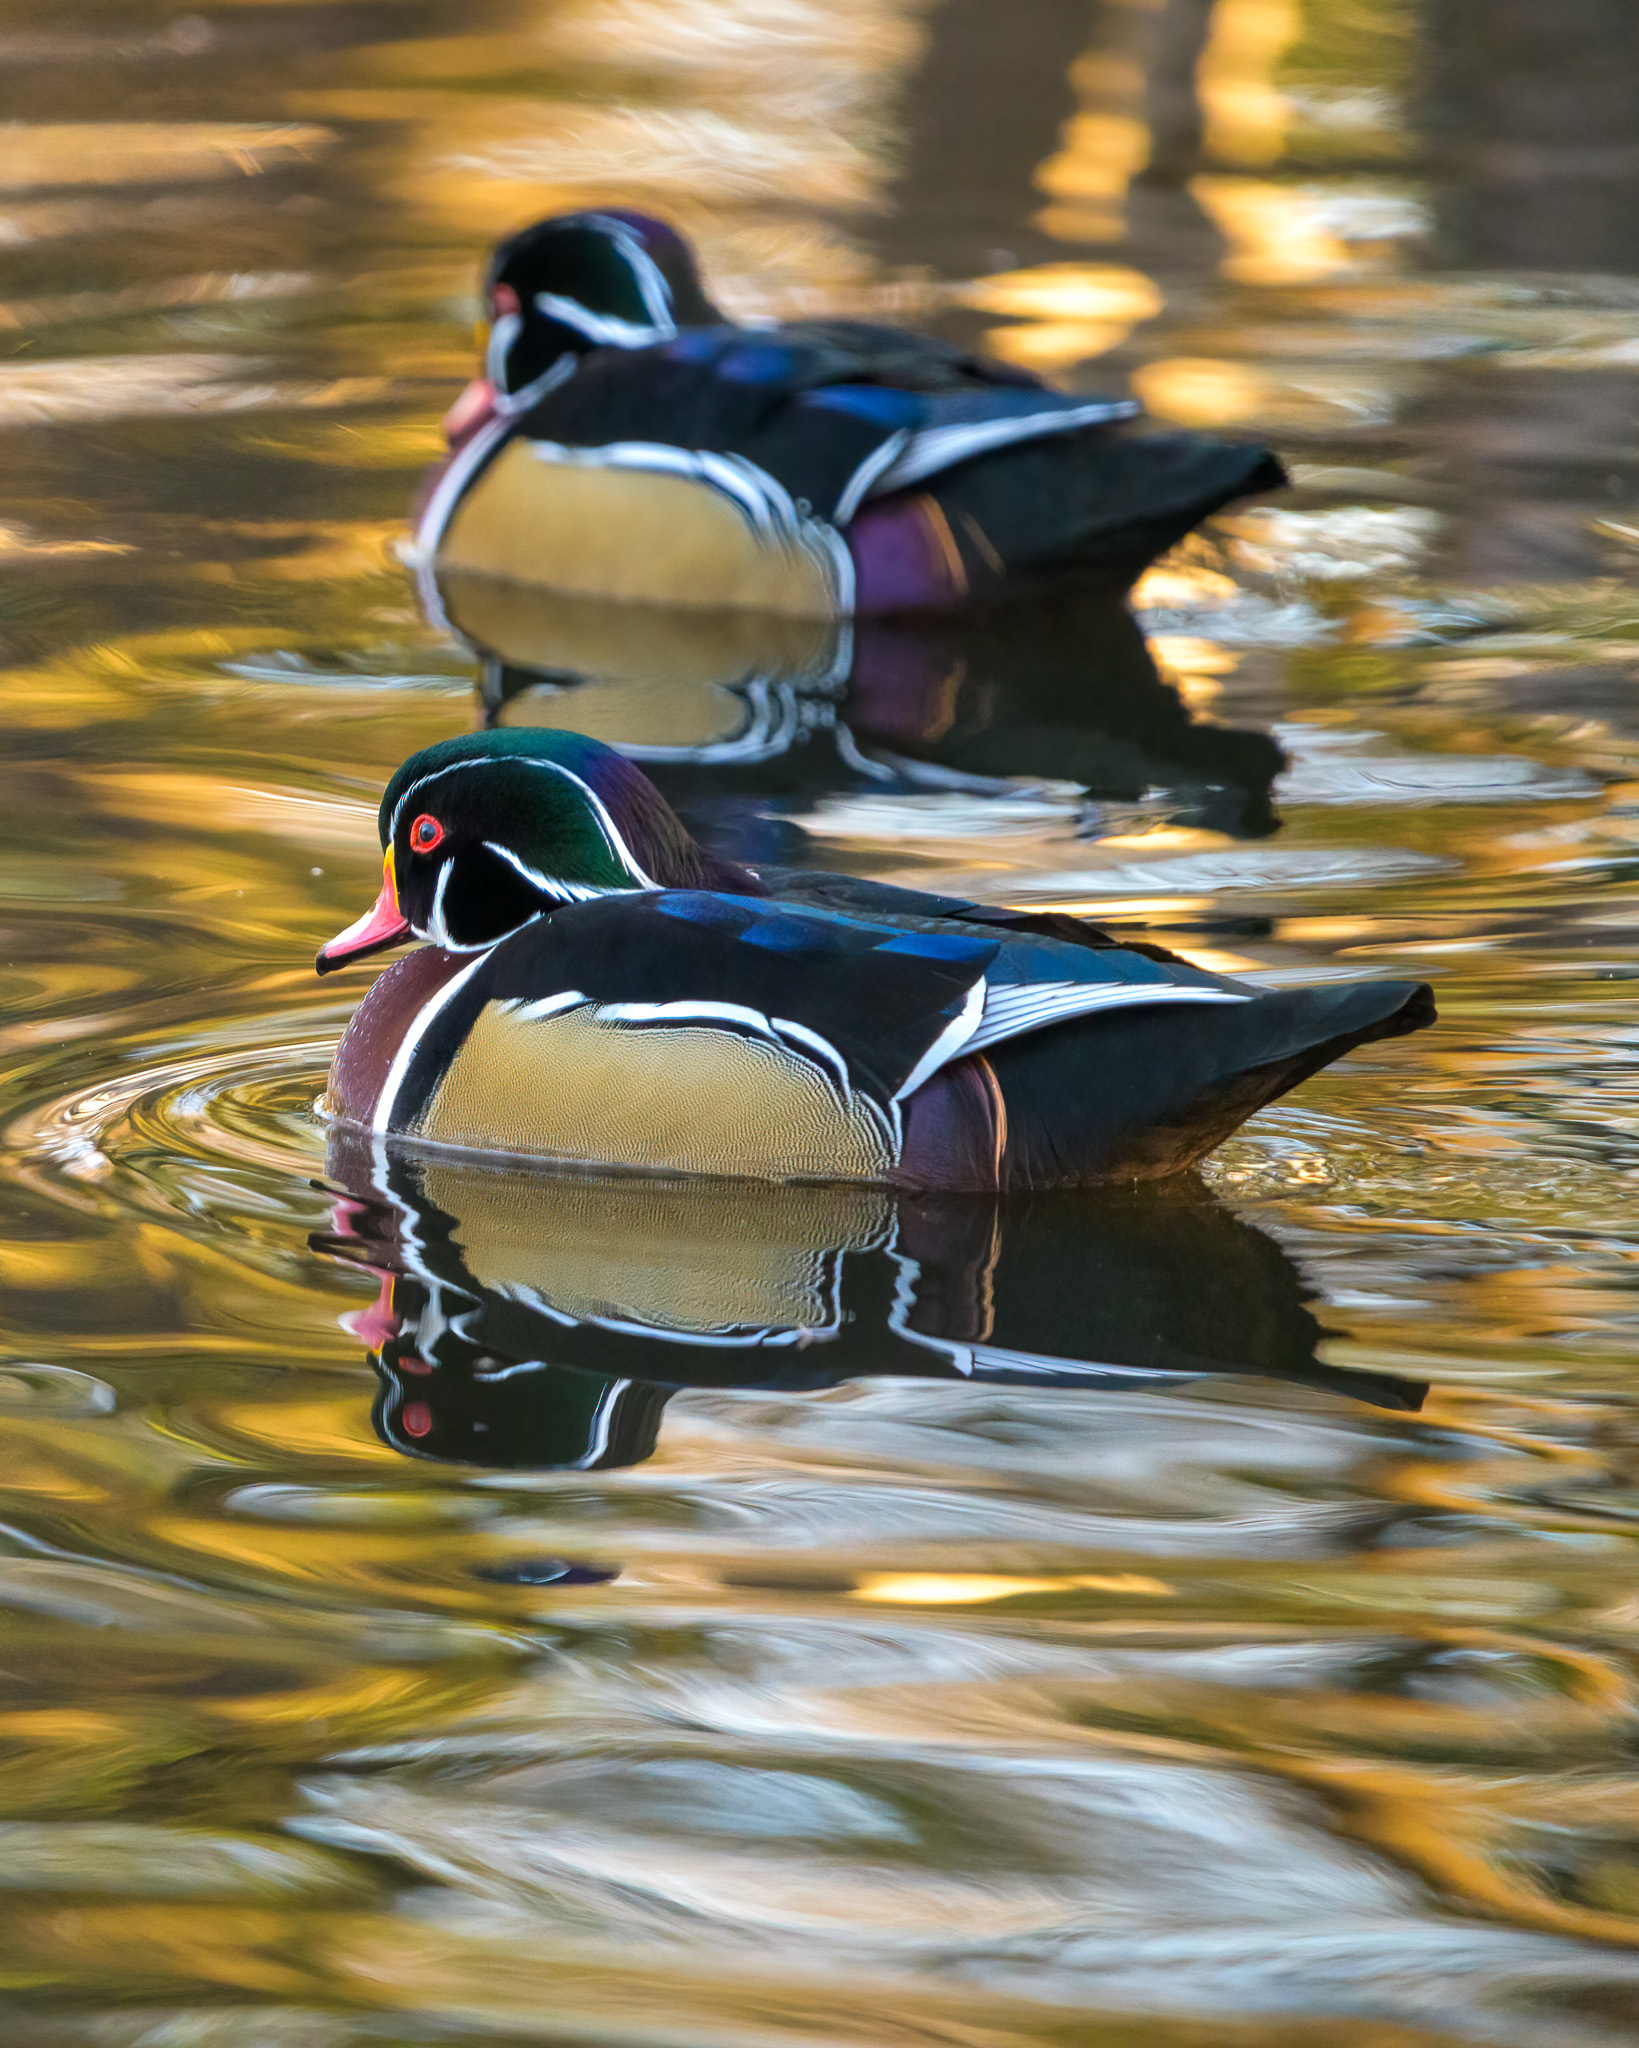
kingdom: Animalia
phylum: Chordata
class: Aves
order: Anseriformes
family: Anatidae
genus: Aix
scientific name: Aix sponsa
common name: Wood duck
